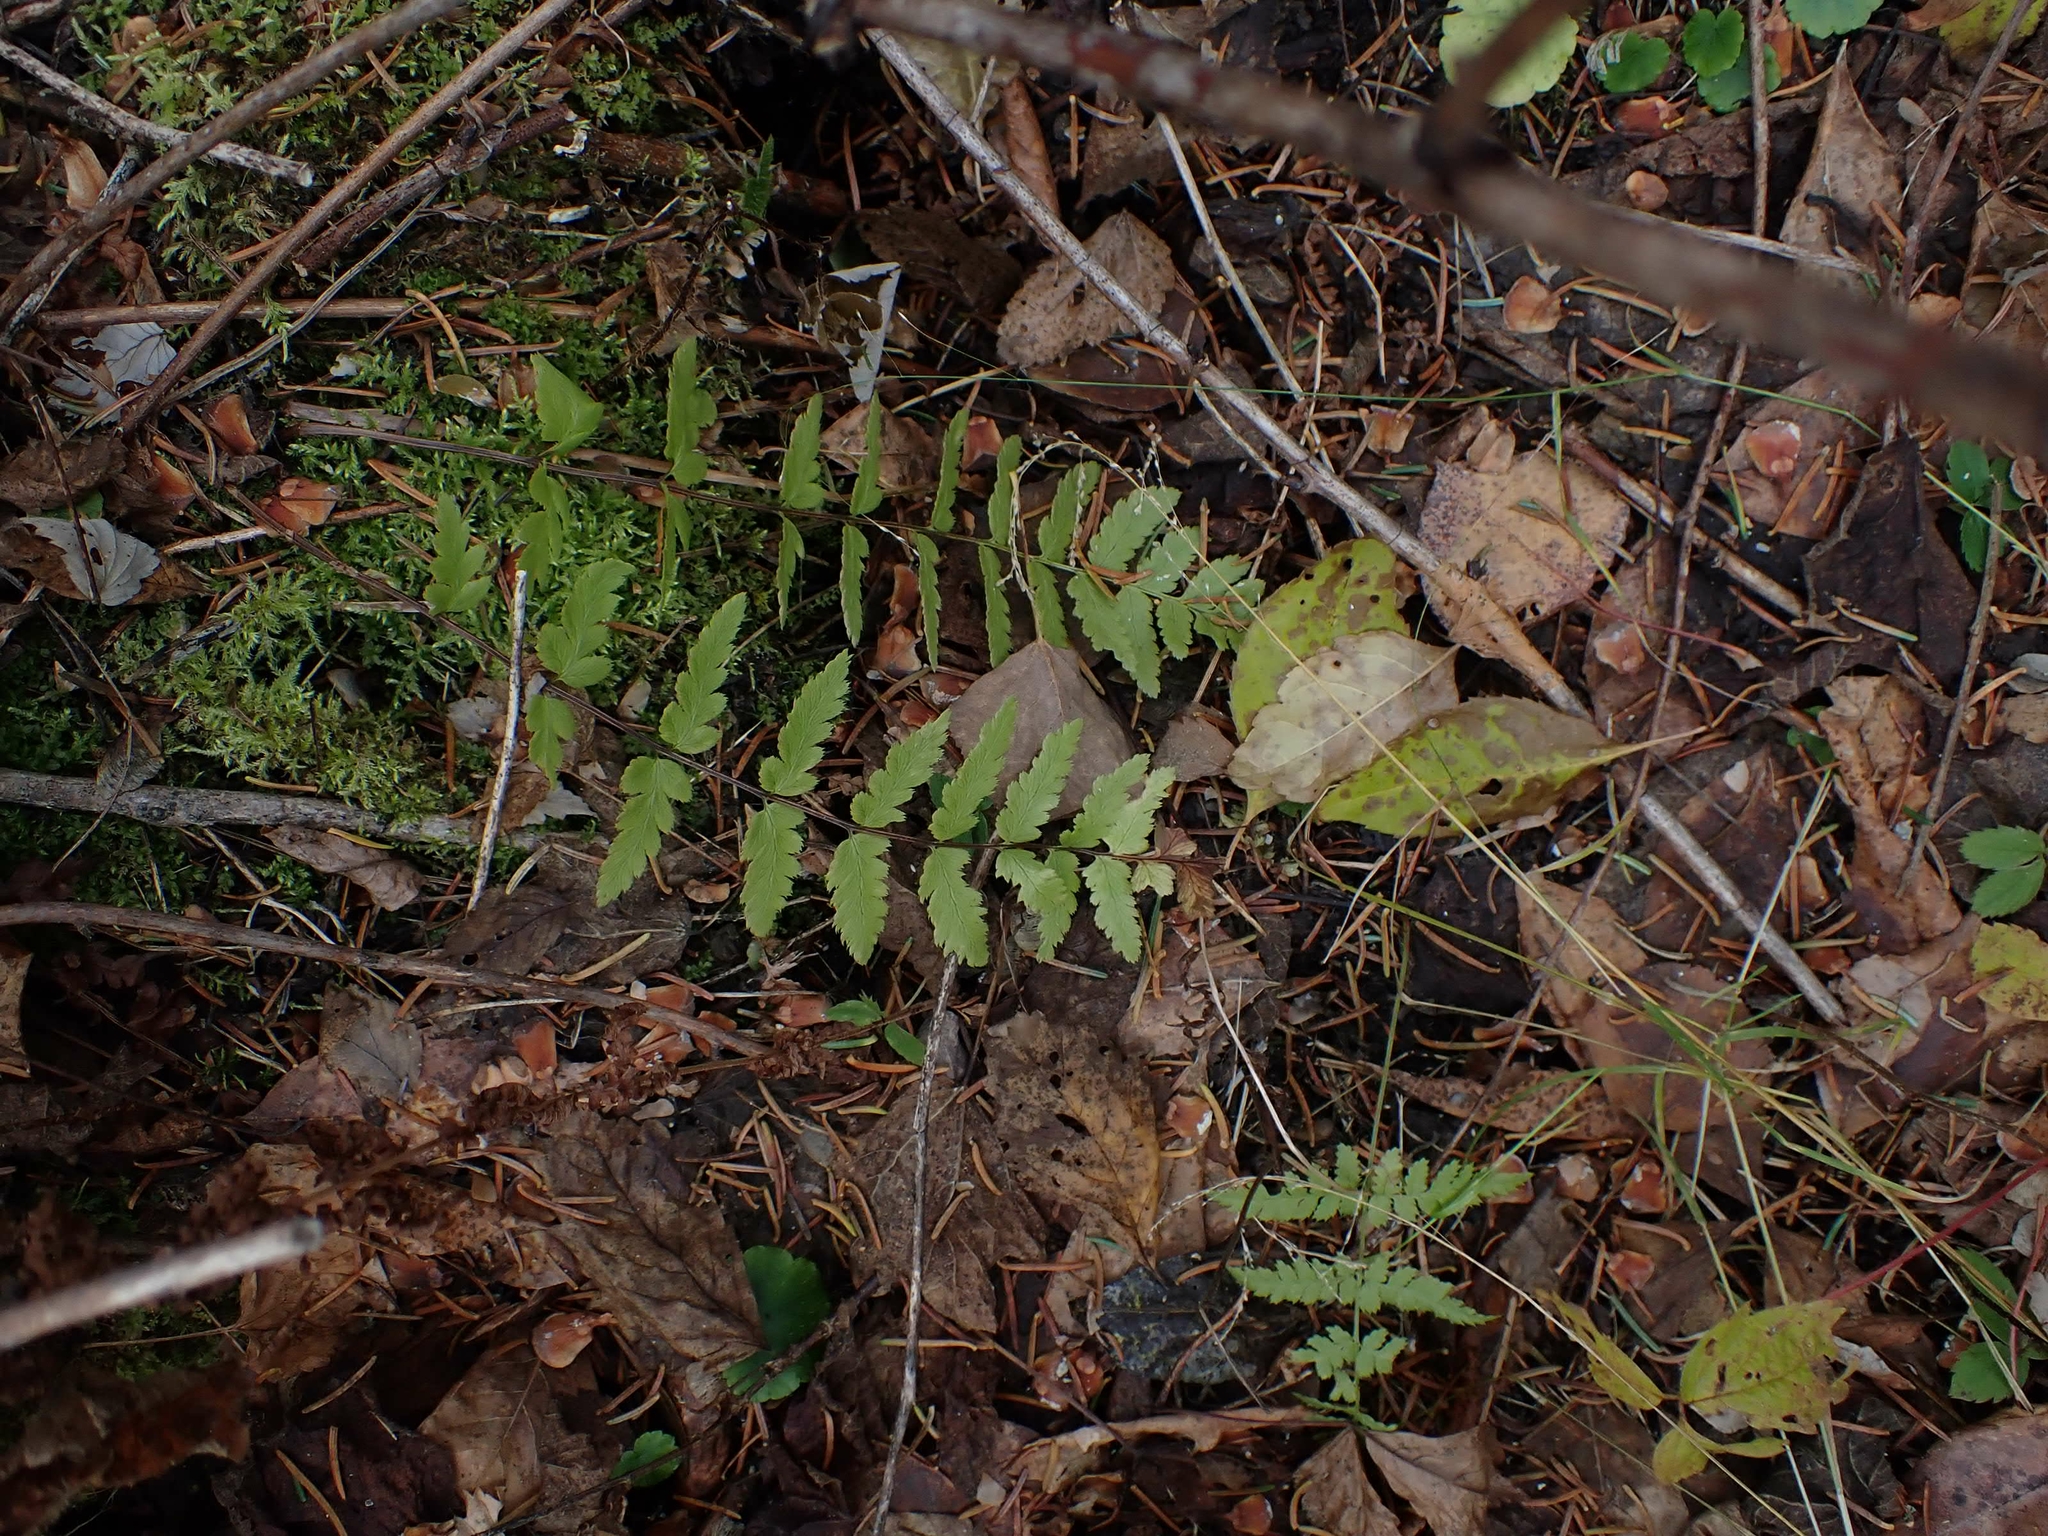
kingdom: Plantae
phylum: Tracheophyta
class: Polypodiopsida
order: Polypodiales
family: Dryopteridaceae
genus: Dryopteris
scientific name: Dryopteris cristata
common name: Crested wood fern
